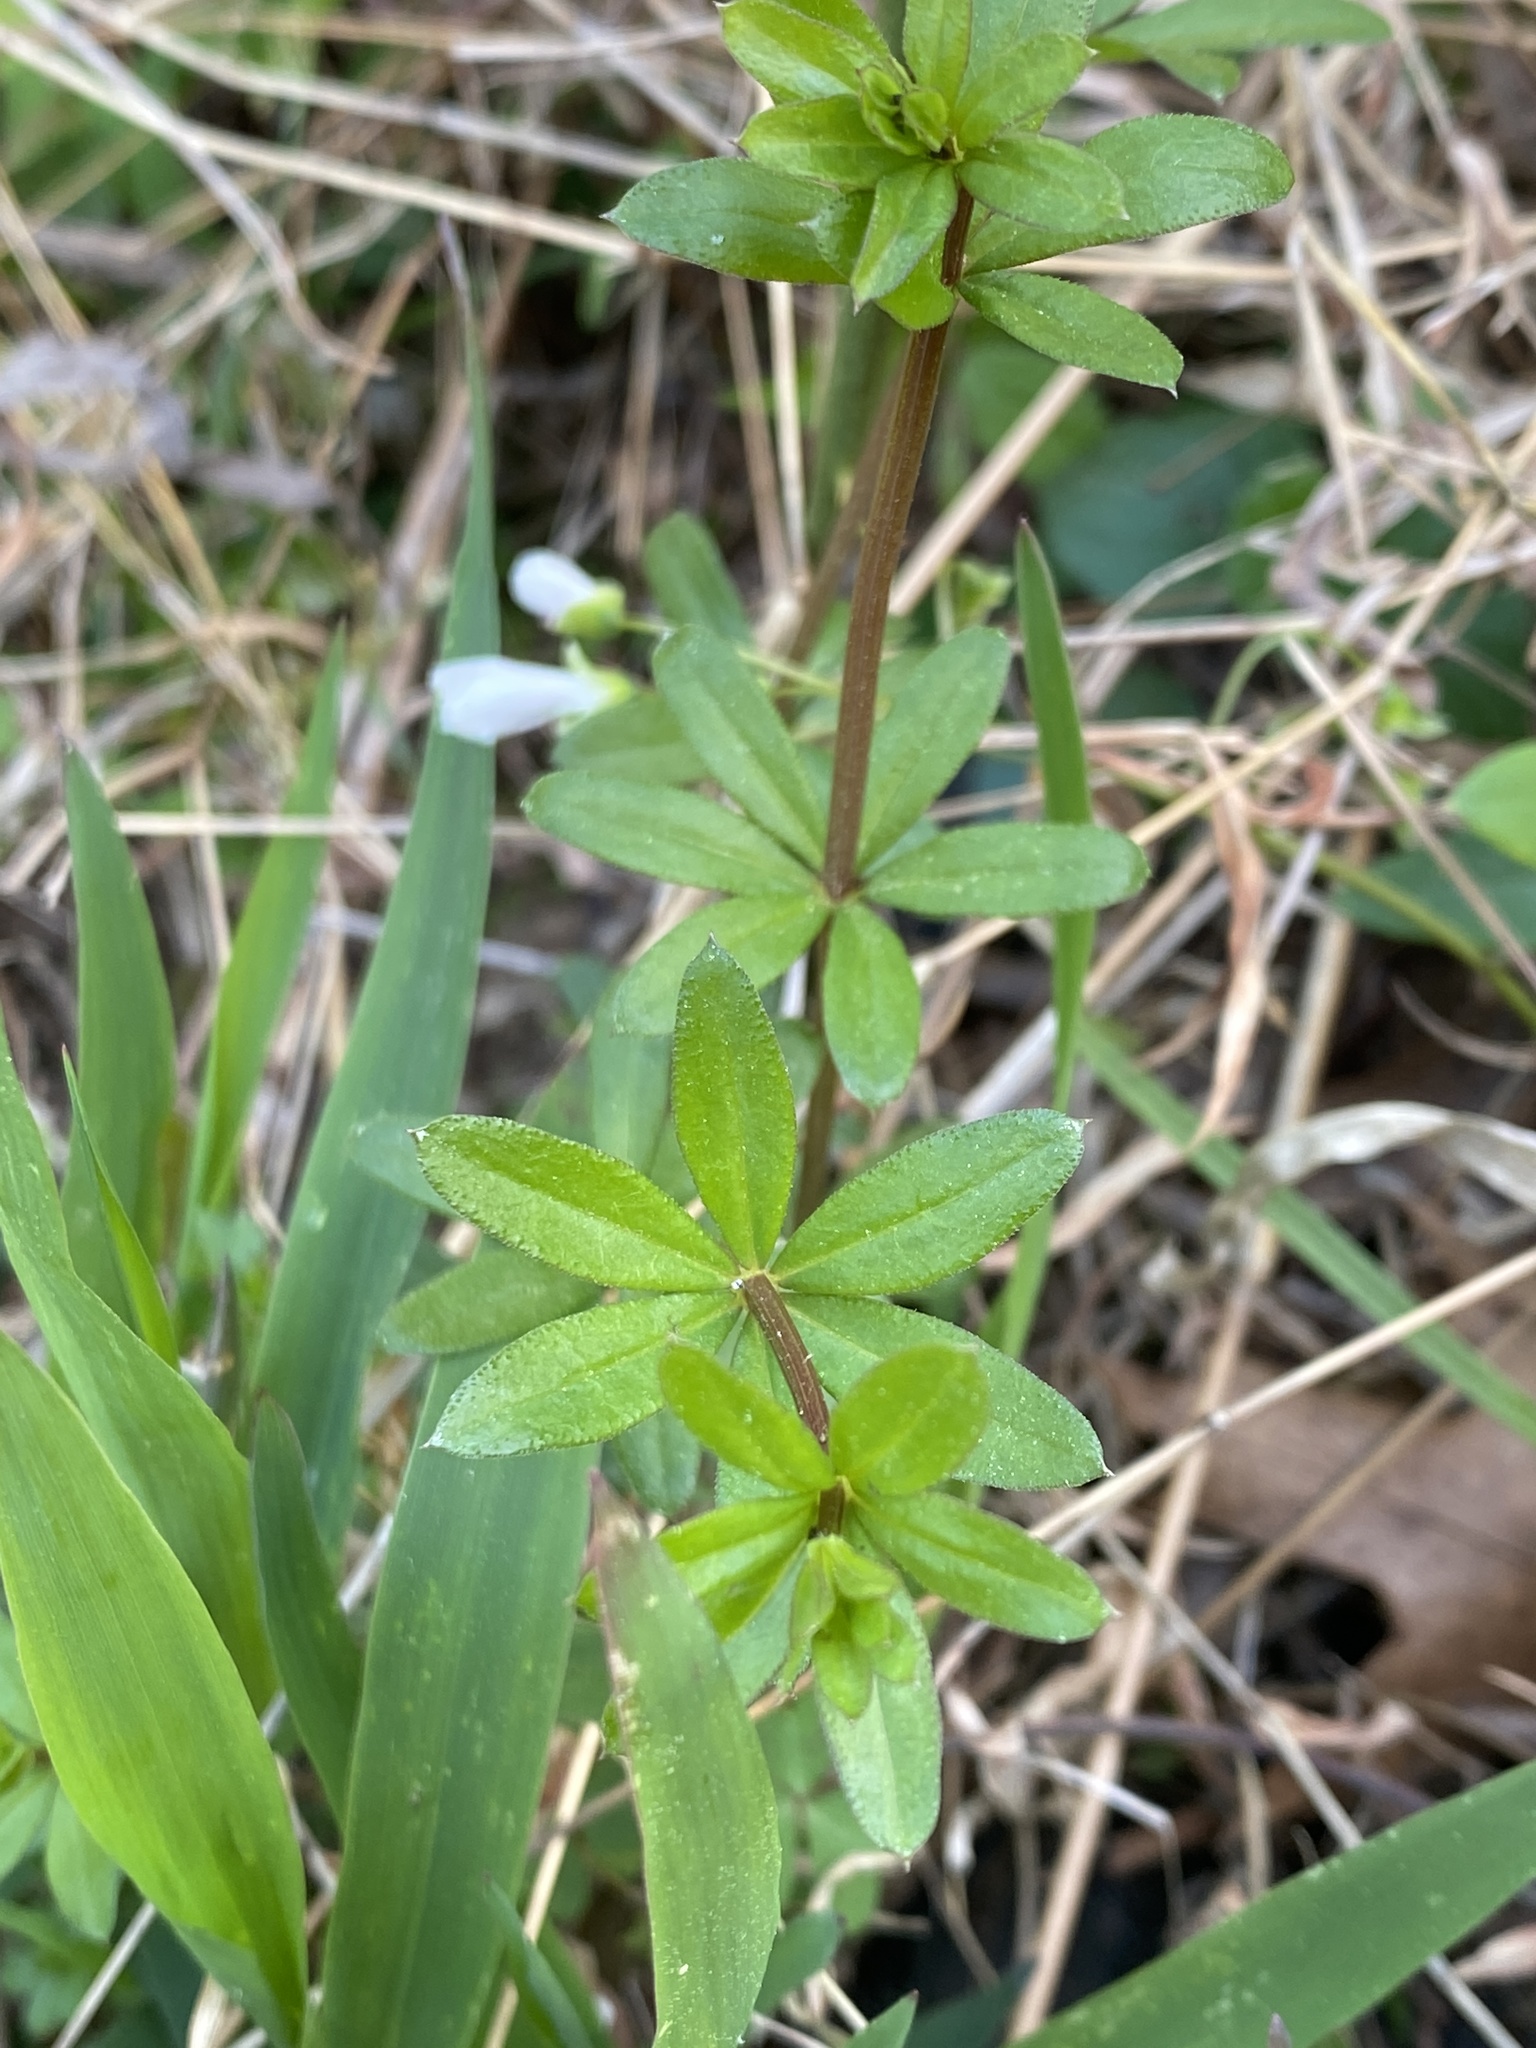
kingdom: Plantae
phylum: Tracheophyta
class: Magnoliopsida
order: Gentianales
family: Rubiaceae
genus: Galium
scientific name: Galium triflorum
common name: Fragrant bedstraw
